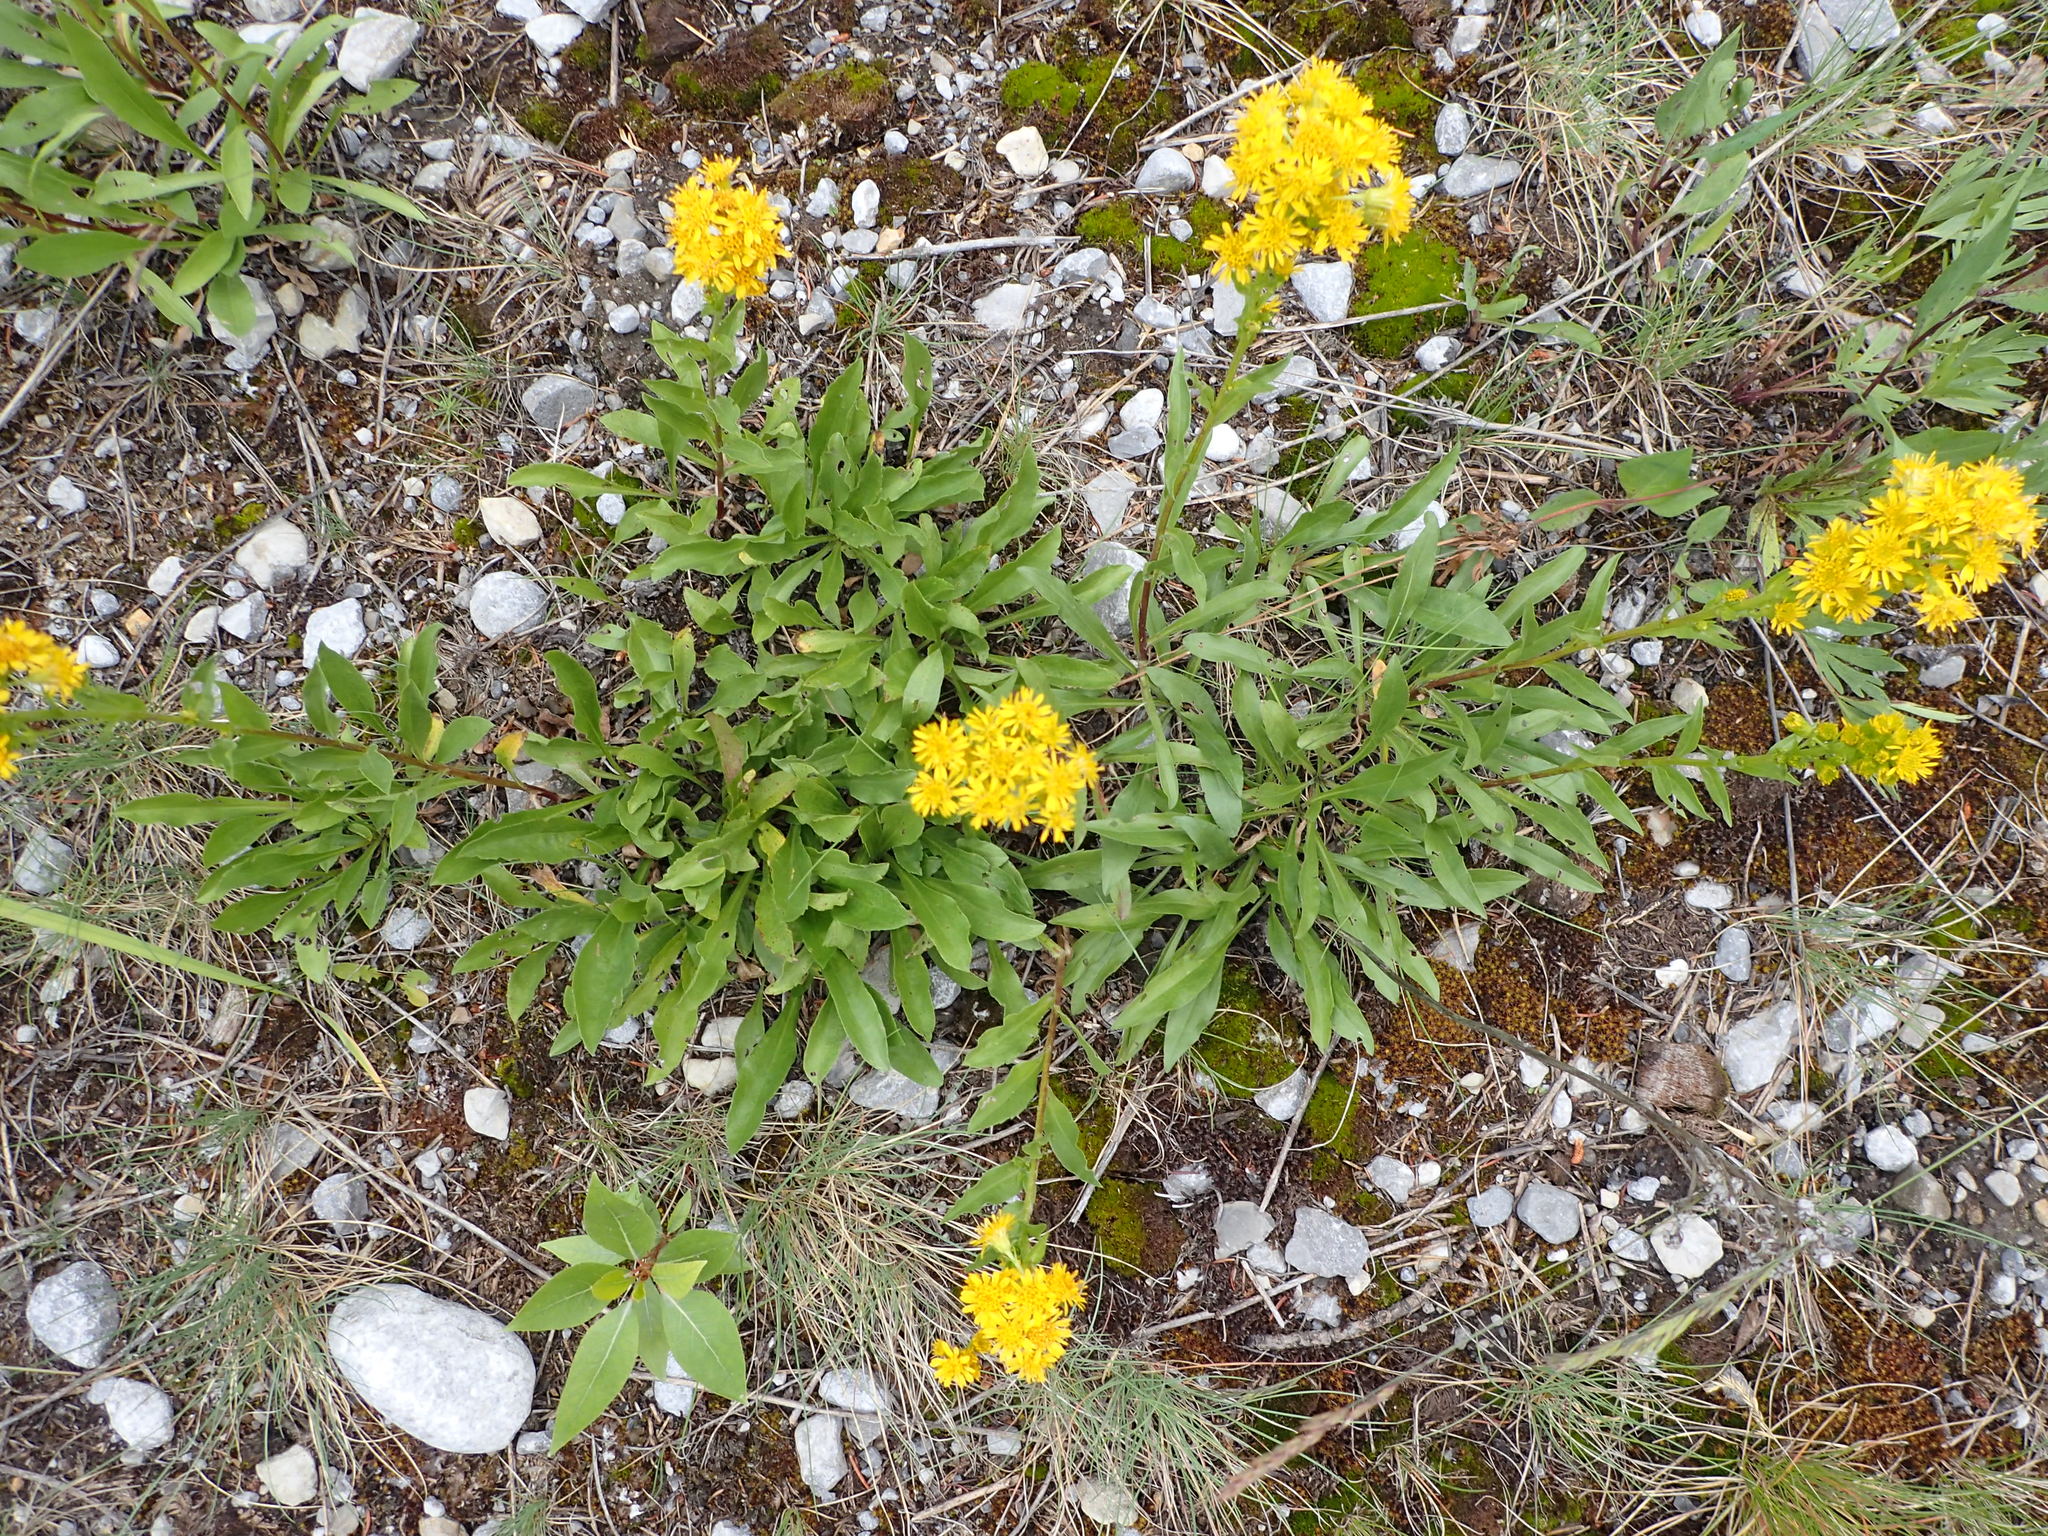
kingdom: Plantae
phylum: Tracheophyta
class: Magnoliopsida
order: Asterales
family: Asteraceae
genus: Solidago
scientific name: Solidago multiradiata
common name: Northern goldenrod
